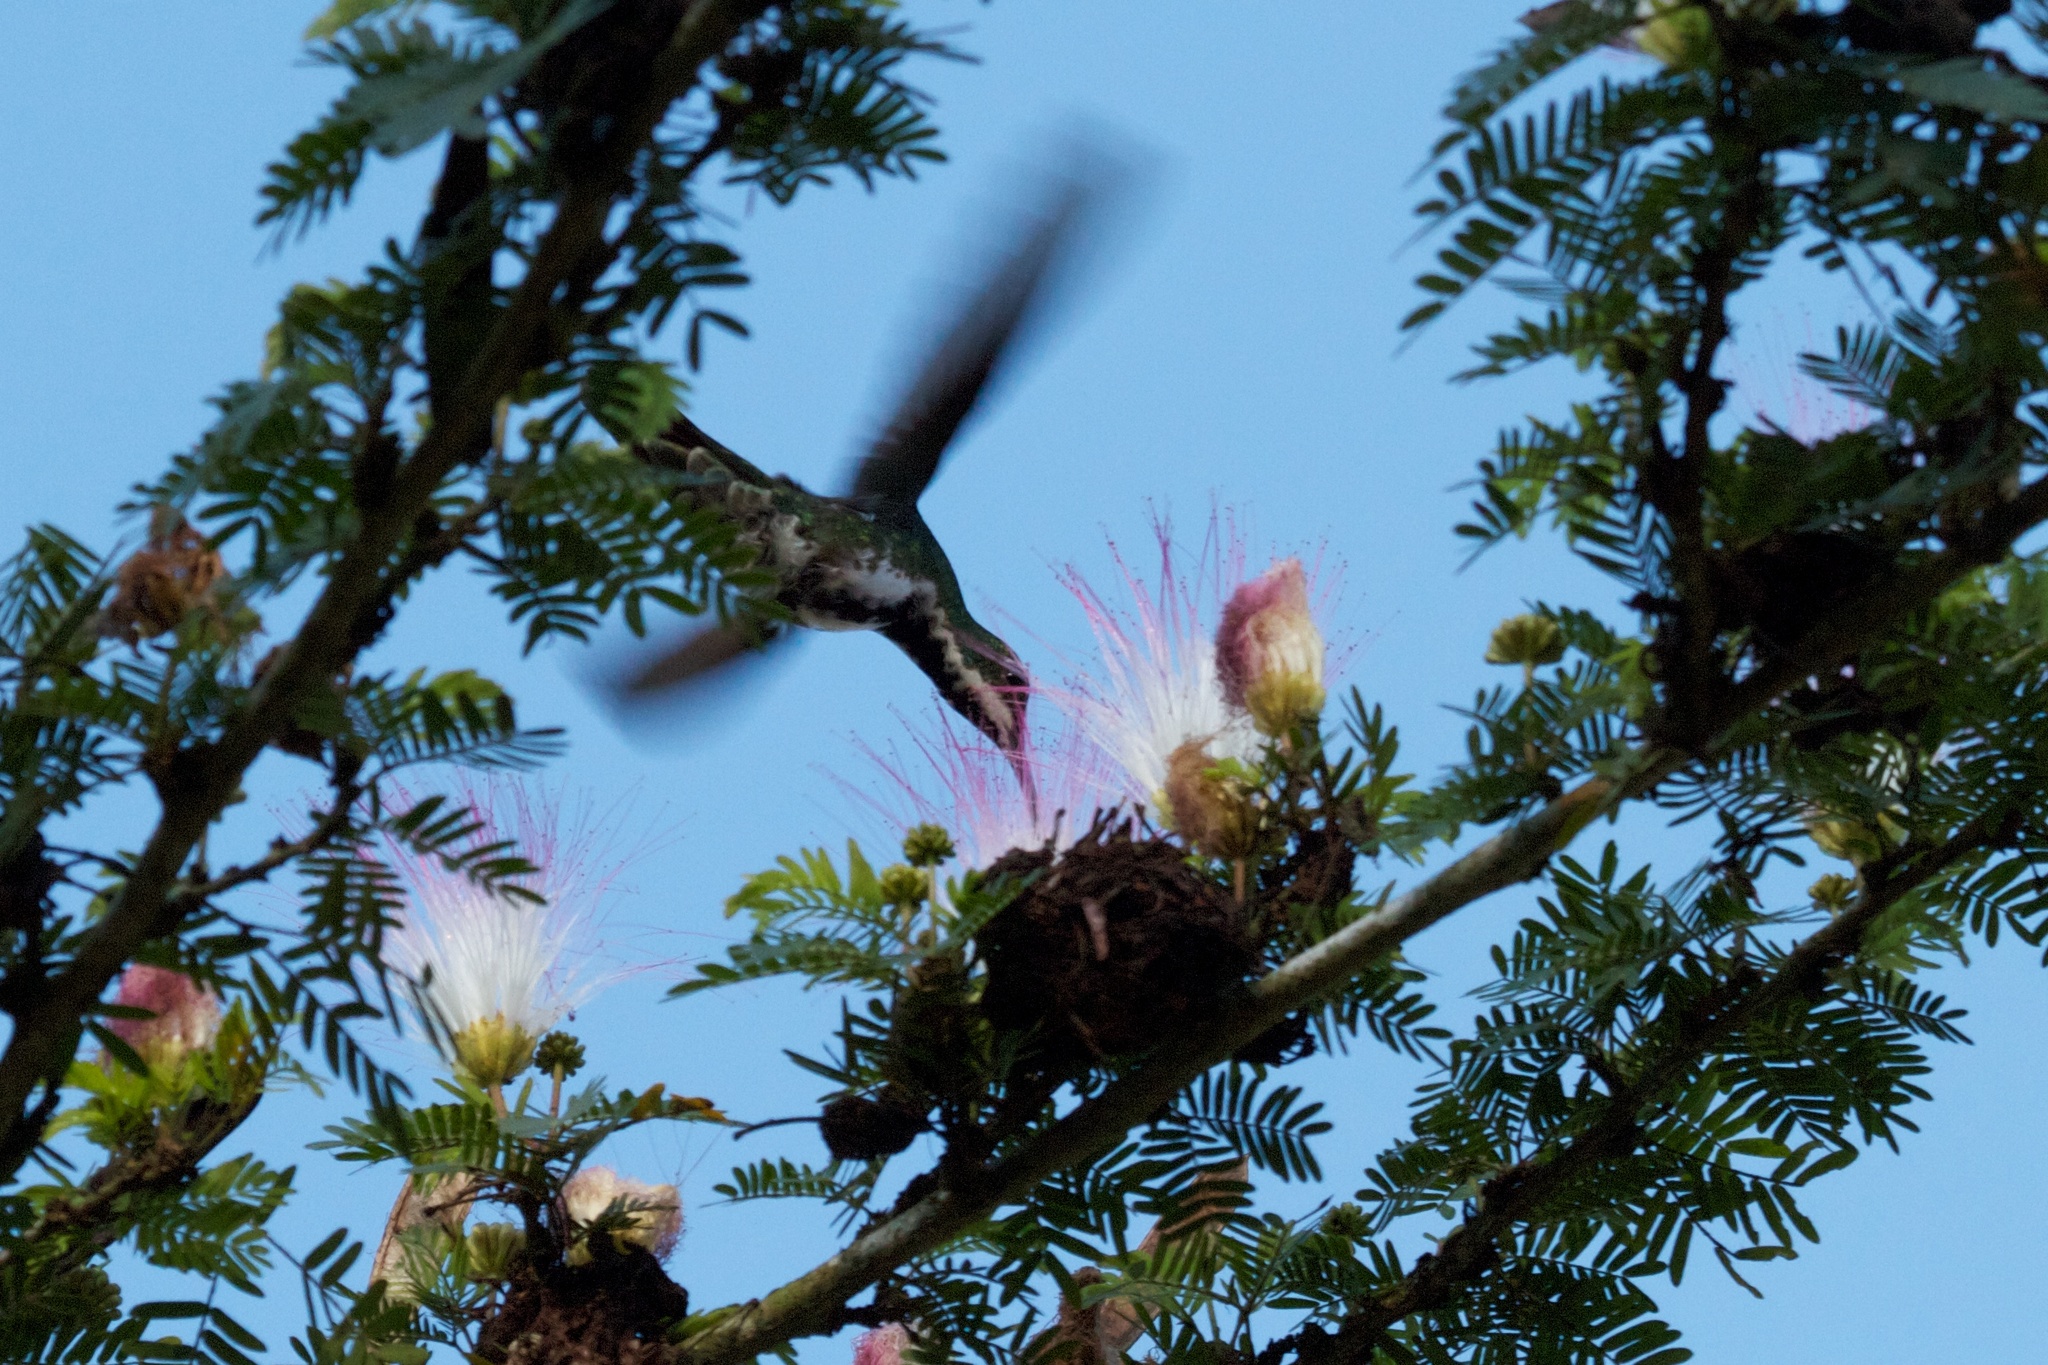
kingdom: Animalia
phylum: Chordata
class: Aves
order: Apodiformes
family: Trochilidae
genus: Anthracothorax
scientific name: Anthracothorax nigricollis
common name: Black-throated mango
